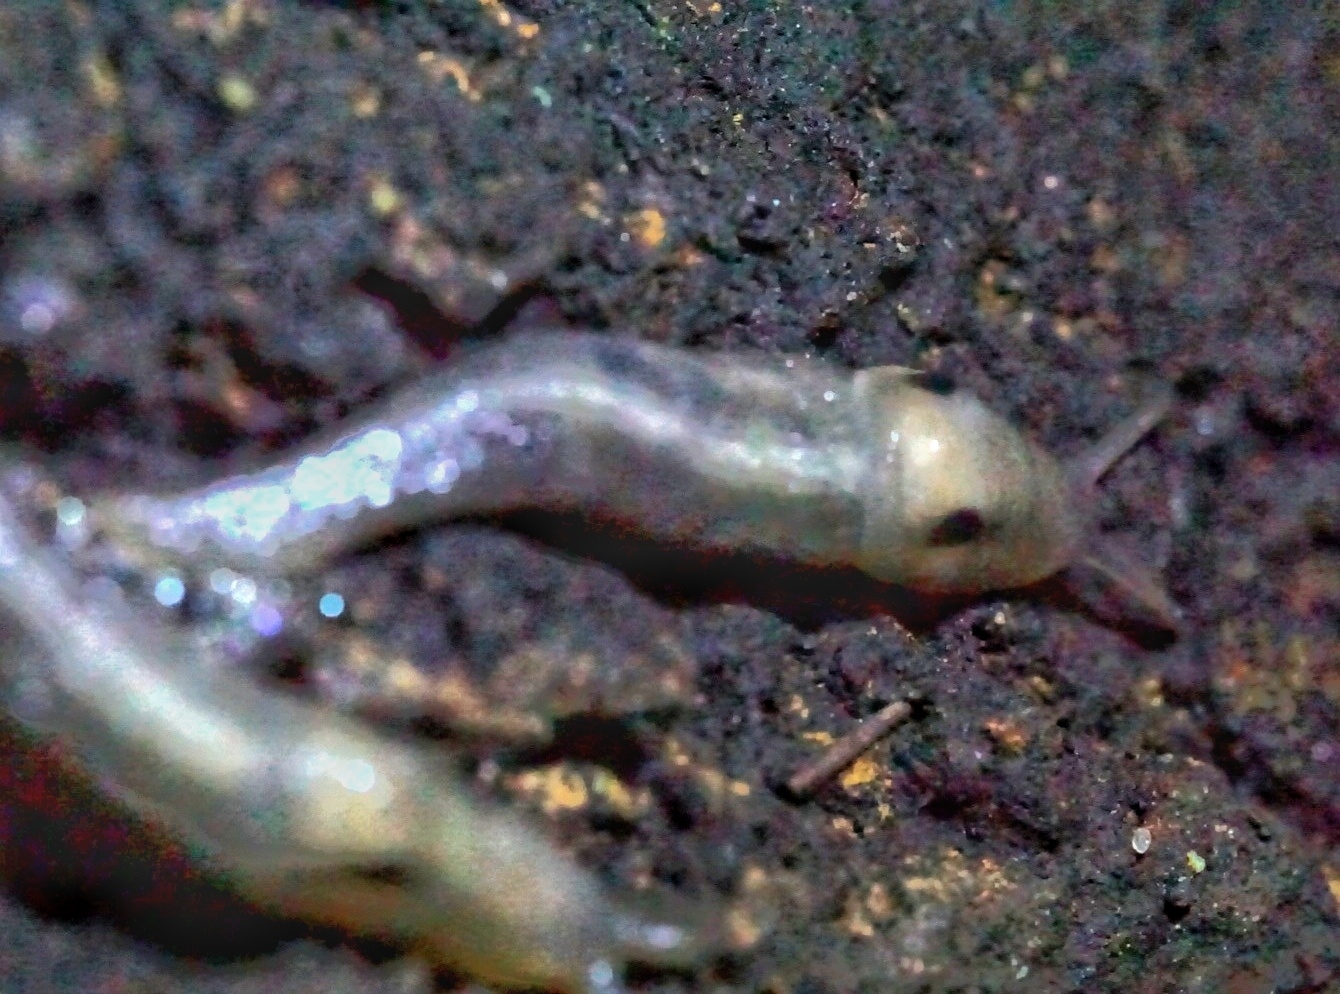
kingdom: Animalia
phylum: Mollusca
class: Gastropoda
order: Stylommatophora
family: Limacidae
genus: Lehmannia
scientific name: Lehmannia marginata
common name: Tree slug
